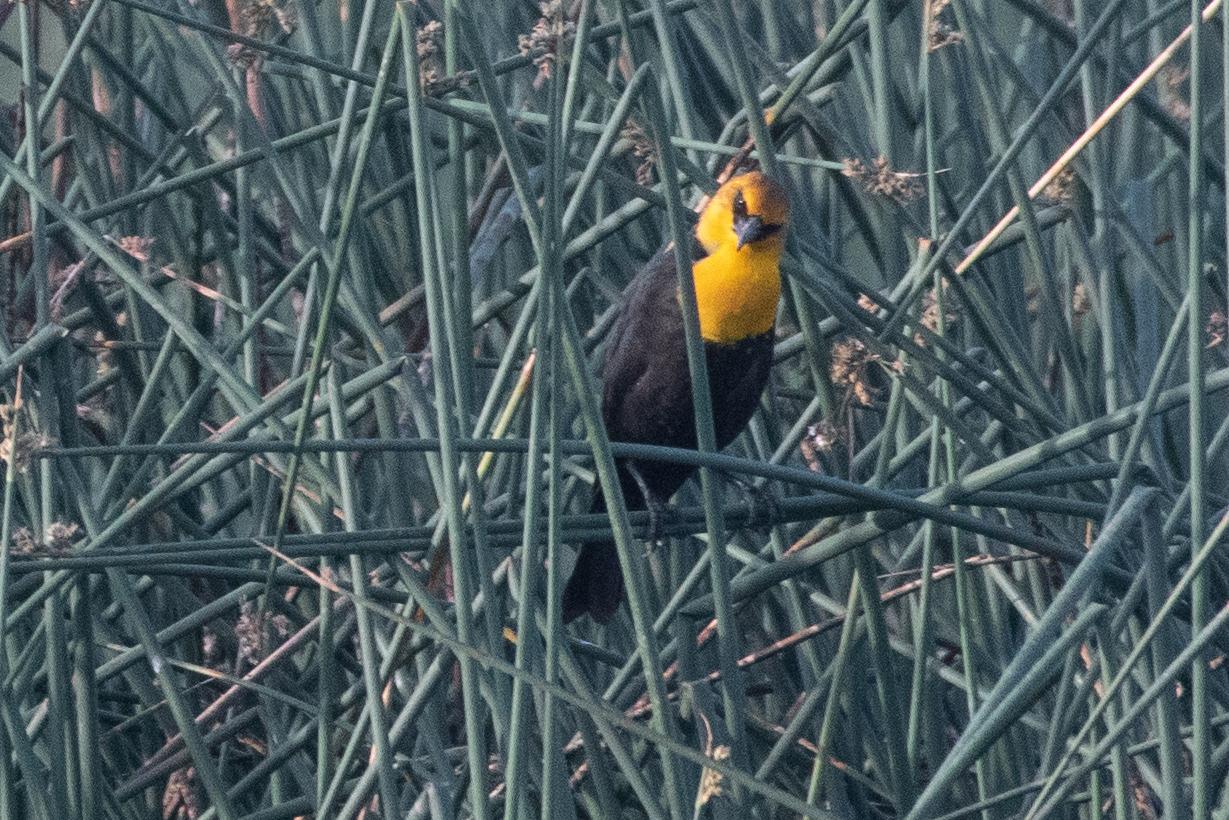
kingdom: Animalia
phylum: Chordata
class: Aves
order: Passeriformes
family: Icteridae
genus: Xanthocephalus
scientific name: Xanthocephalus xanthocephalus
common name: Yellow-headed blackbird
